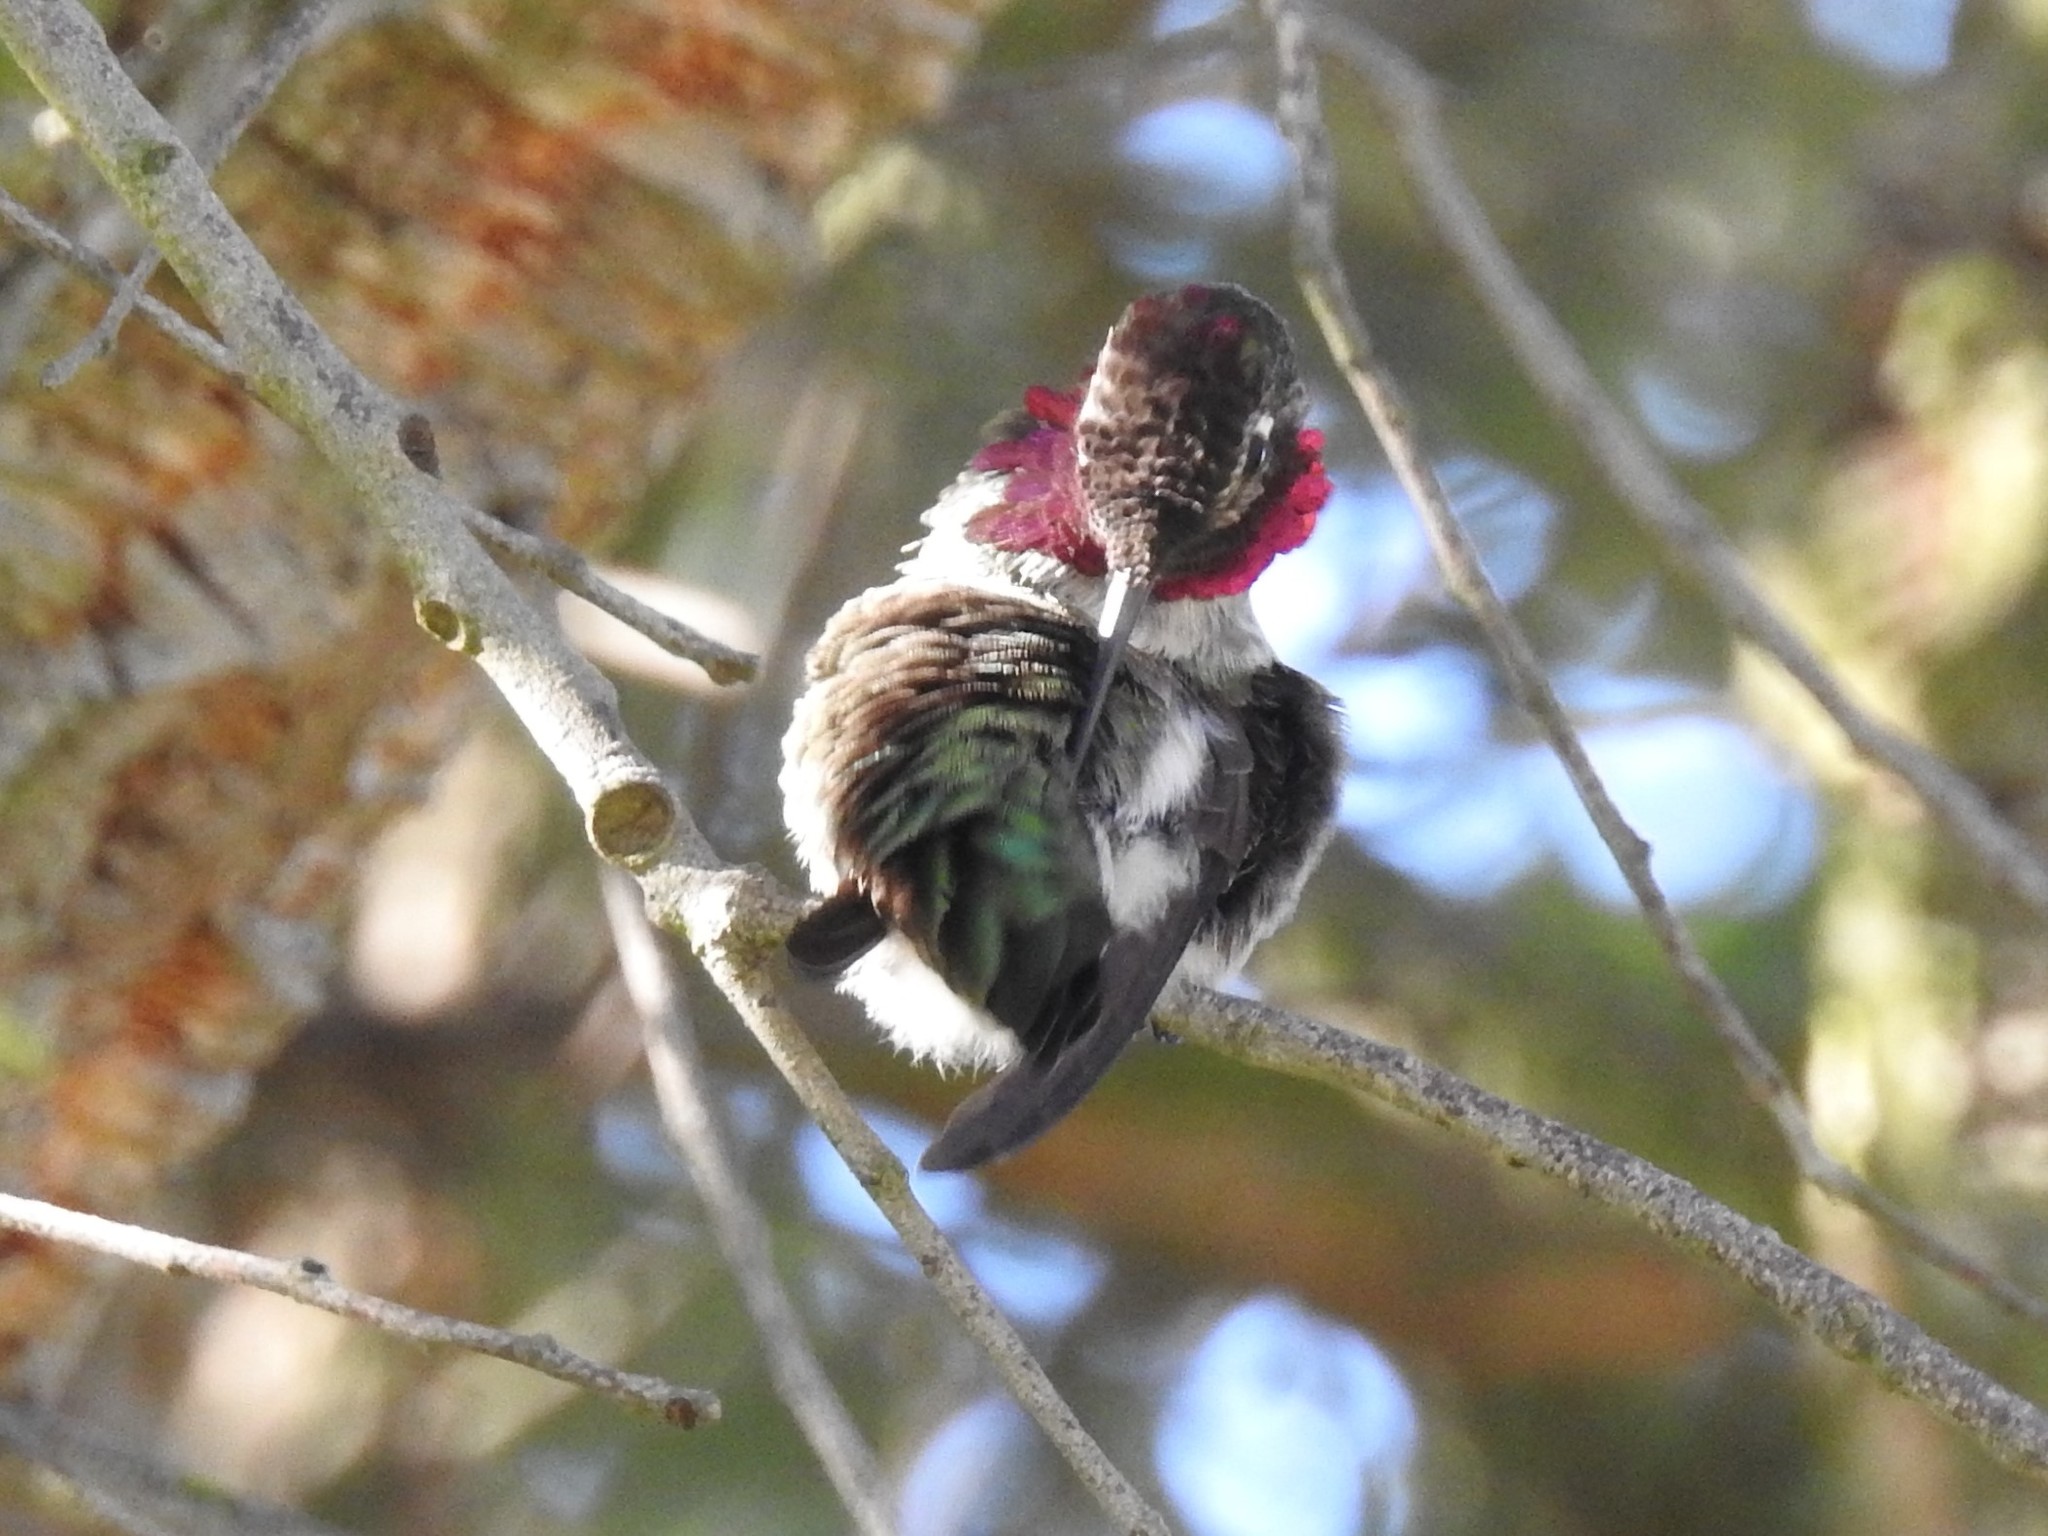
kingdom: Animalia
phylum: Chordata
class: Aves
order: Apodiformes
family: Trochilidae
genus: Calypte
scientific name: Calypte anna
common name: Anna's hummingbird
